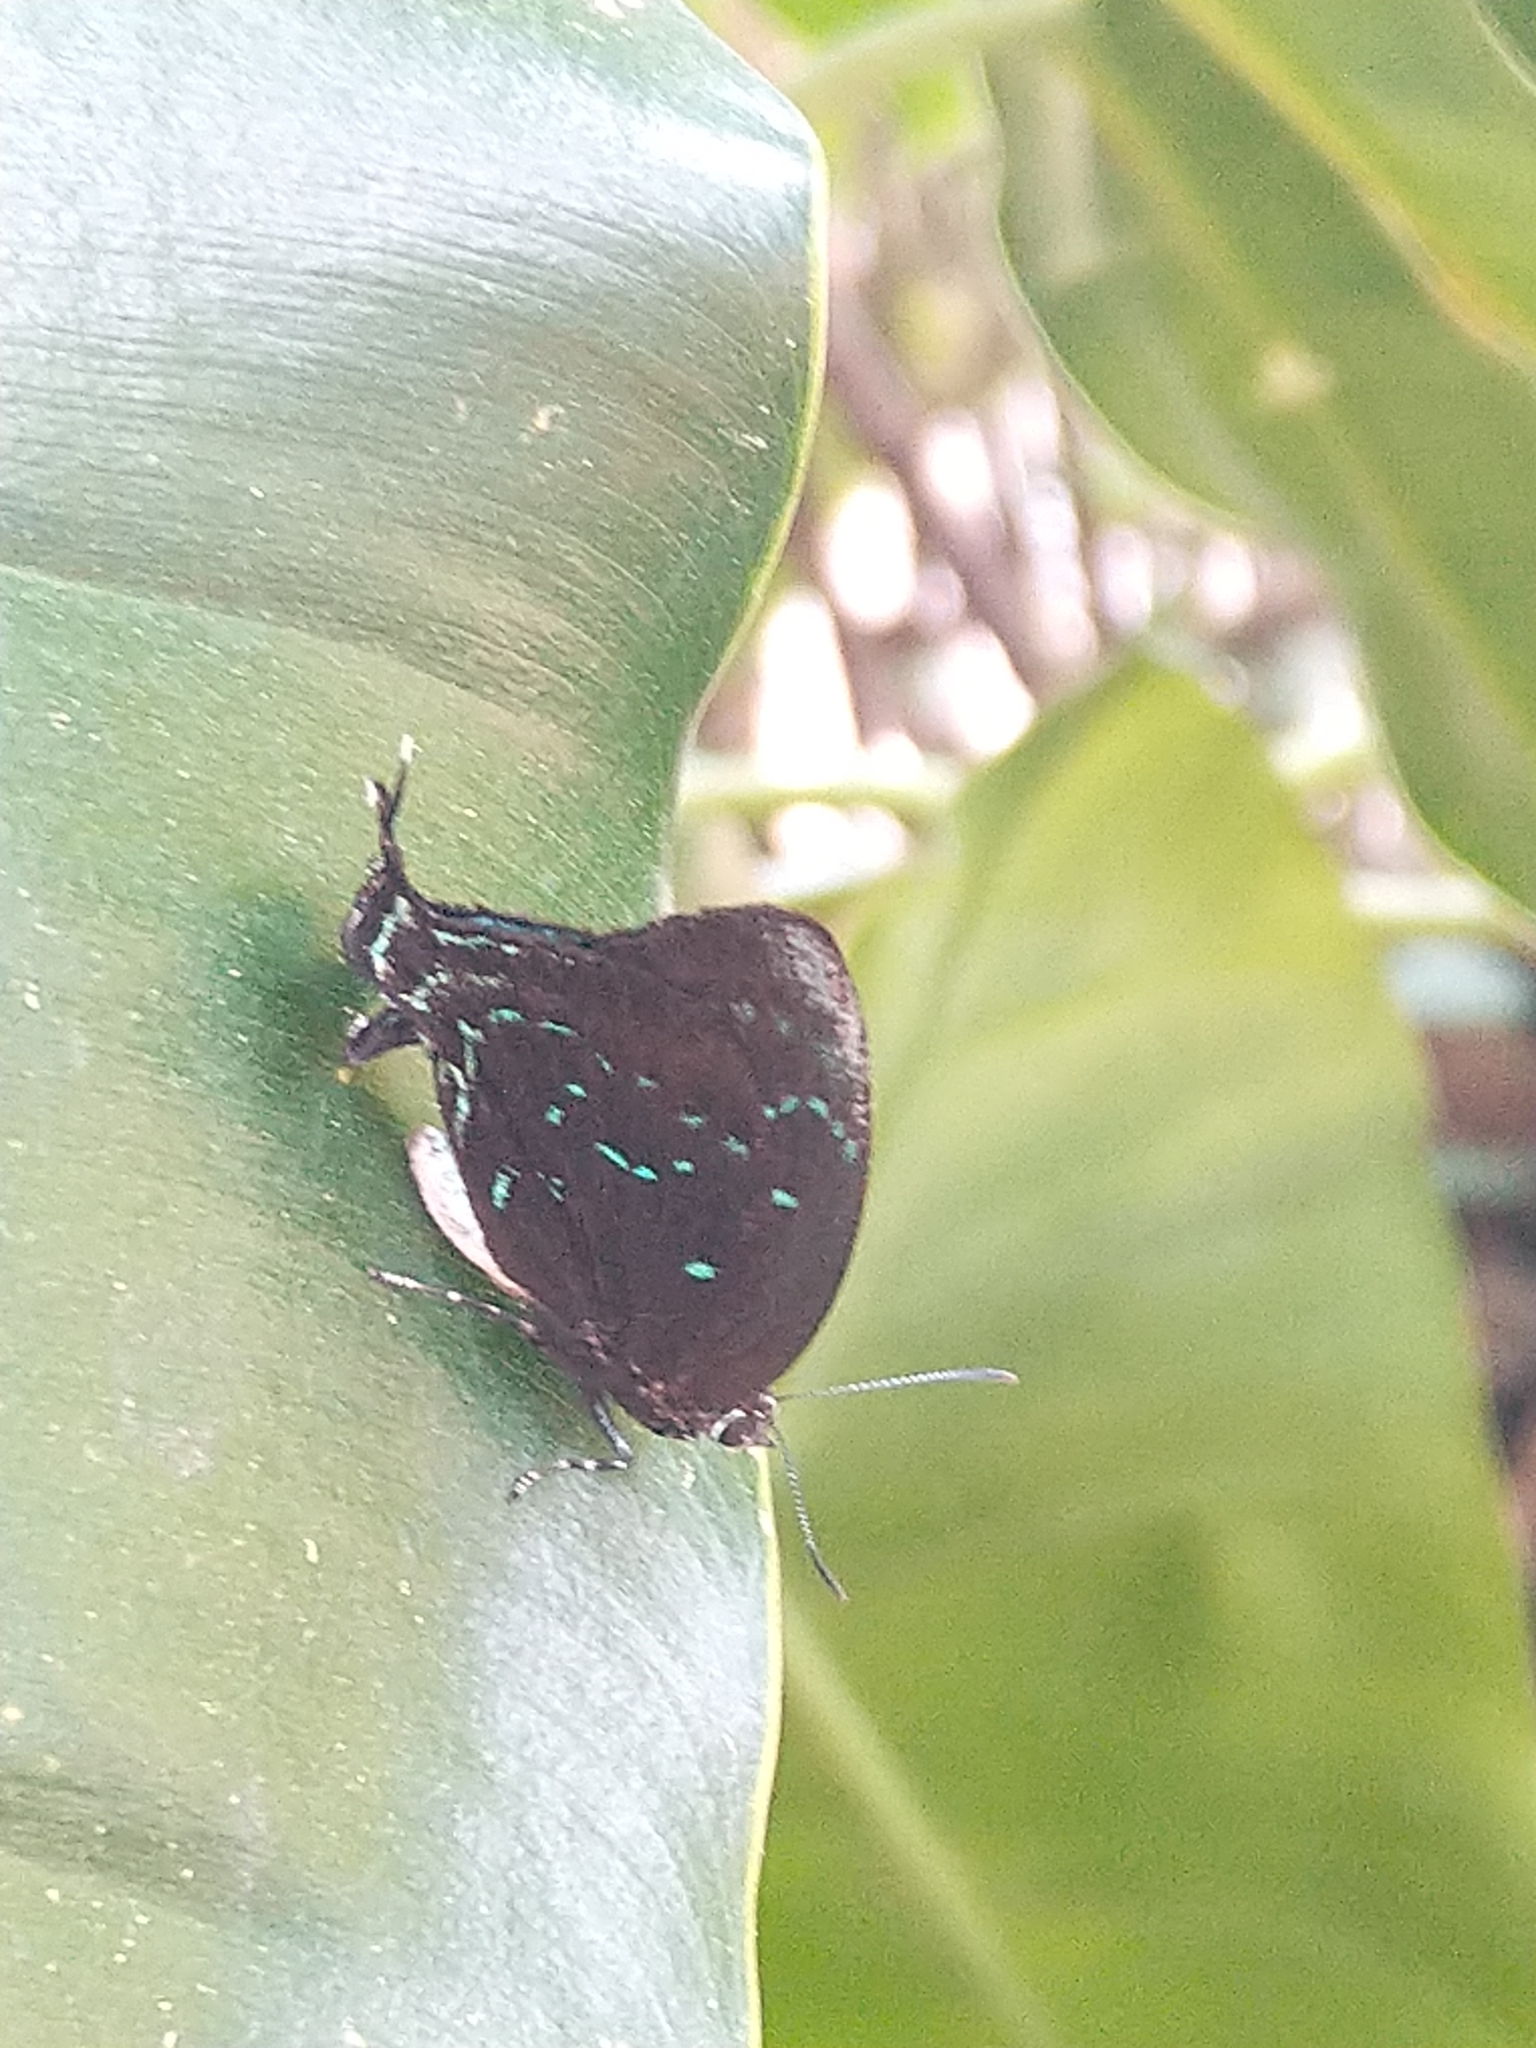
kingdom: Animalia
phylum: Arthropoda
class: Insecta
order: Lepidoptera
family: Lycaenidae
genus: Denivia
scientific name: Denivia
